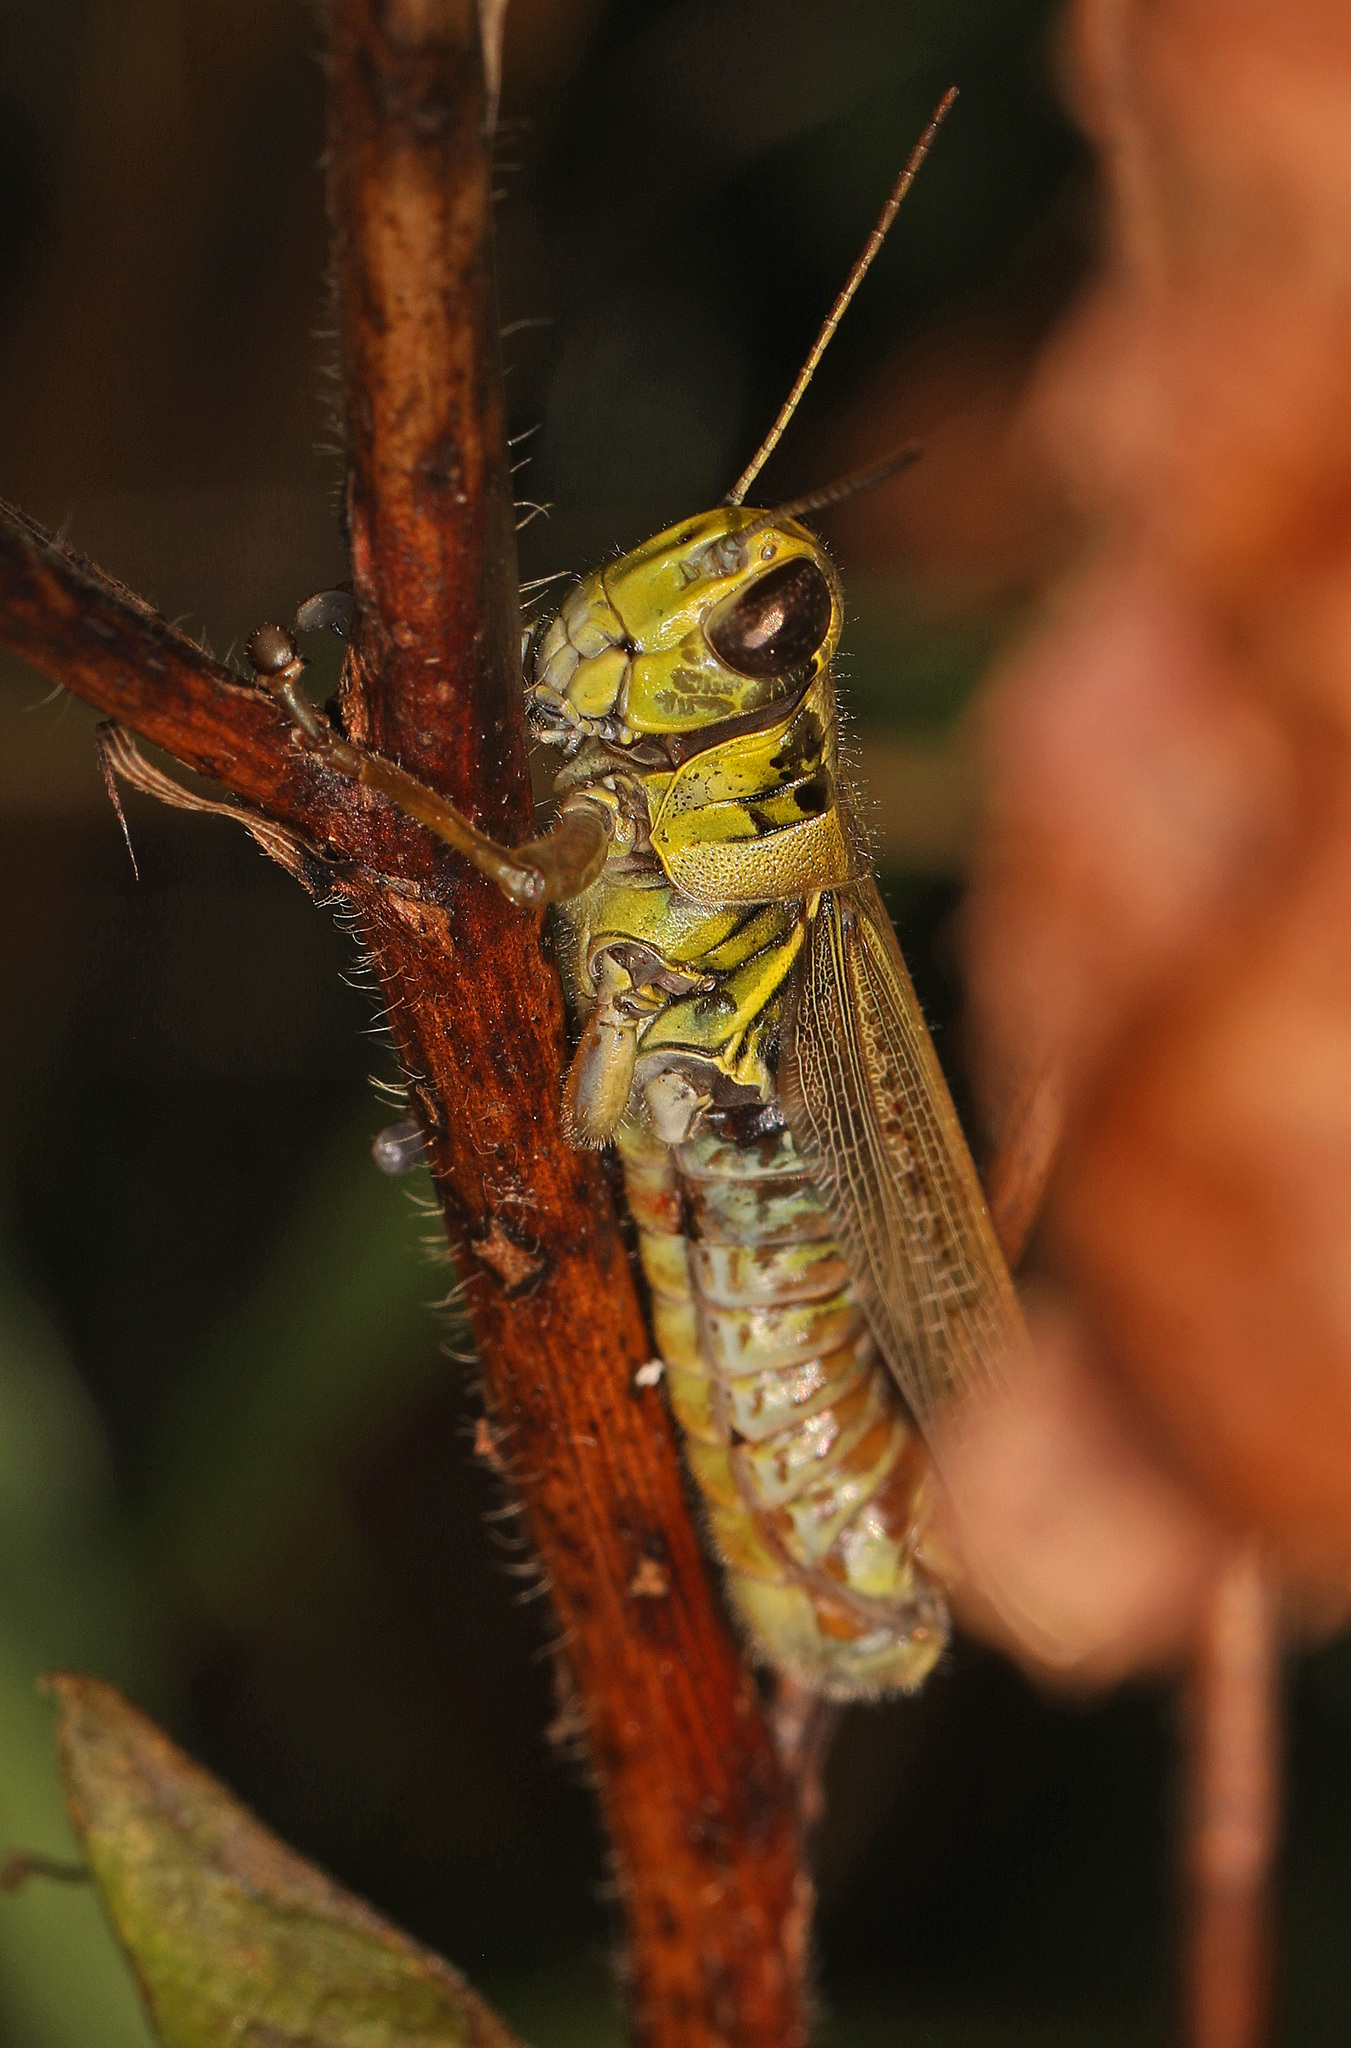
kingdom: Animalia
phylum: Arthropoda
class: Insecta
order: Orthoptera
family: Acrididae
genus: Melanoplus
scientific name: Melanoplus femurrubrum
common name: Red-legged grasshopper
